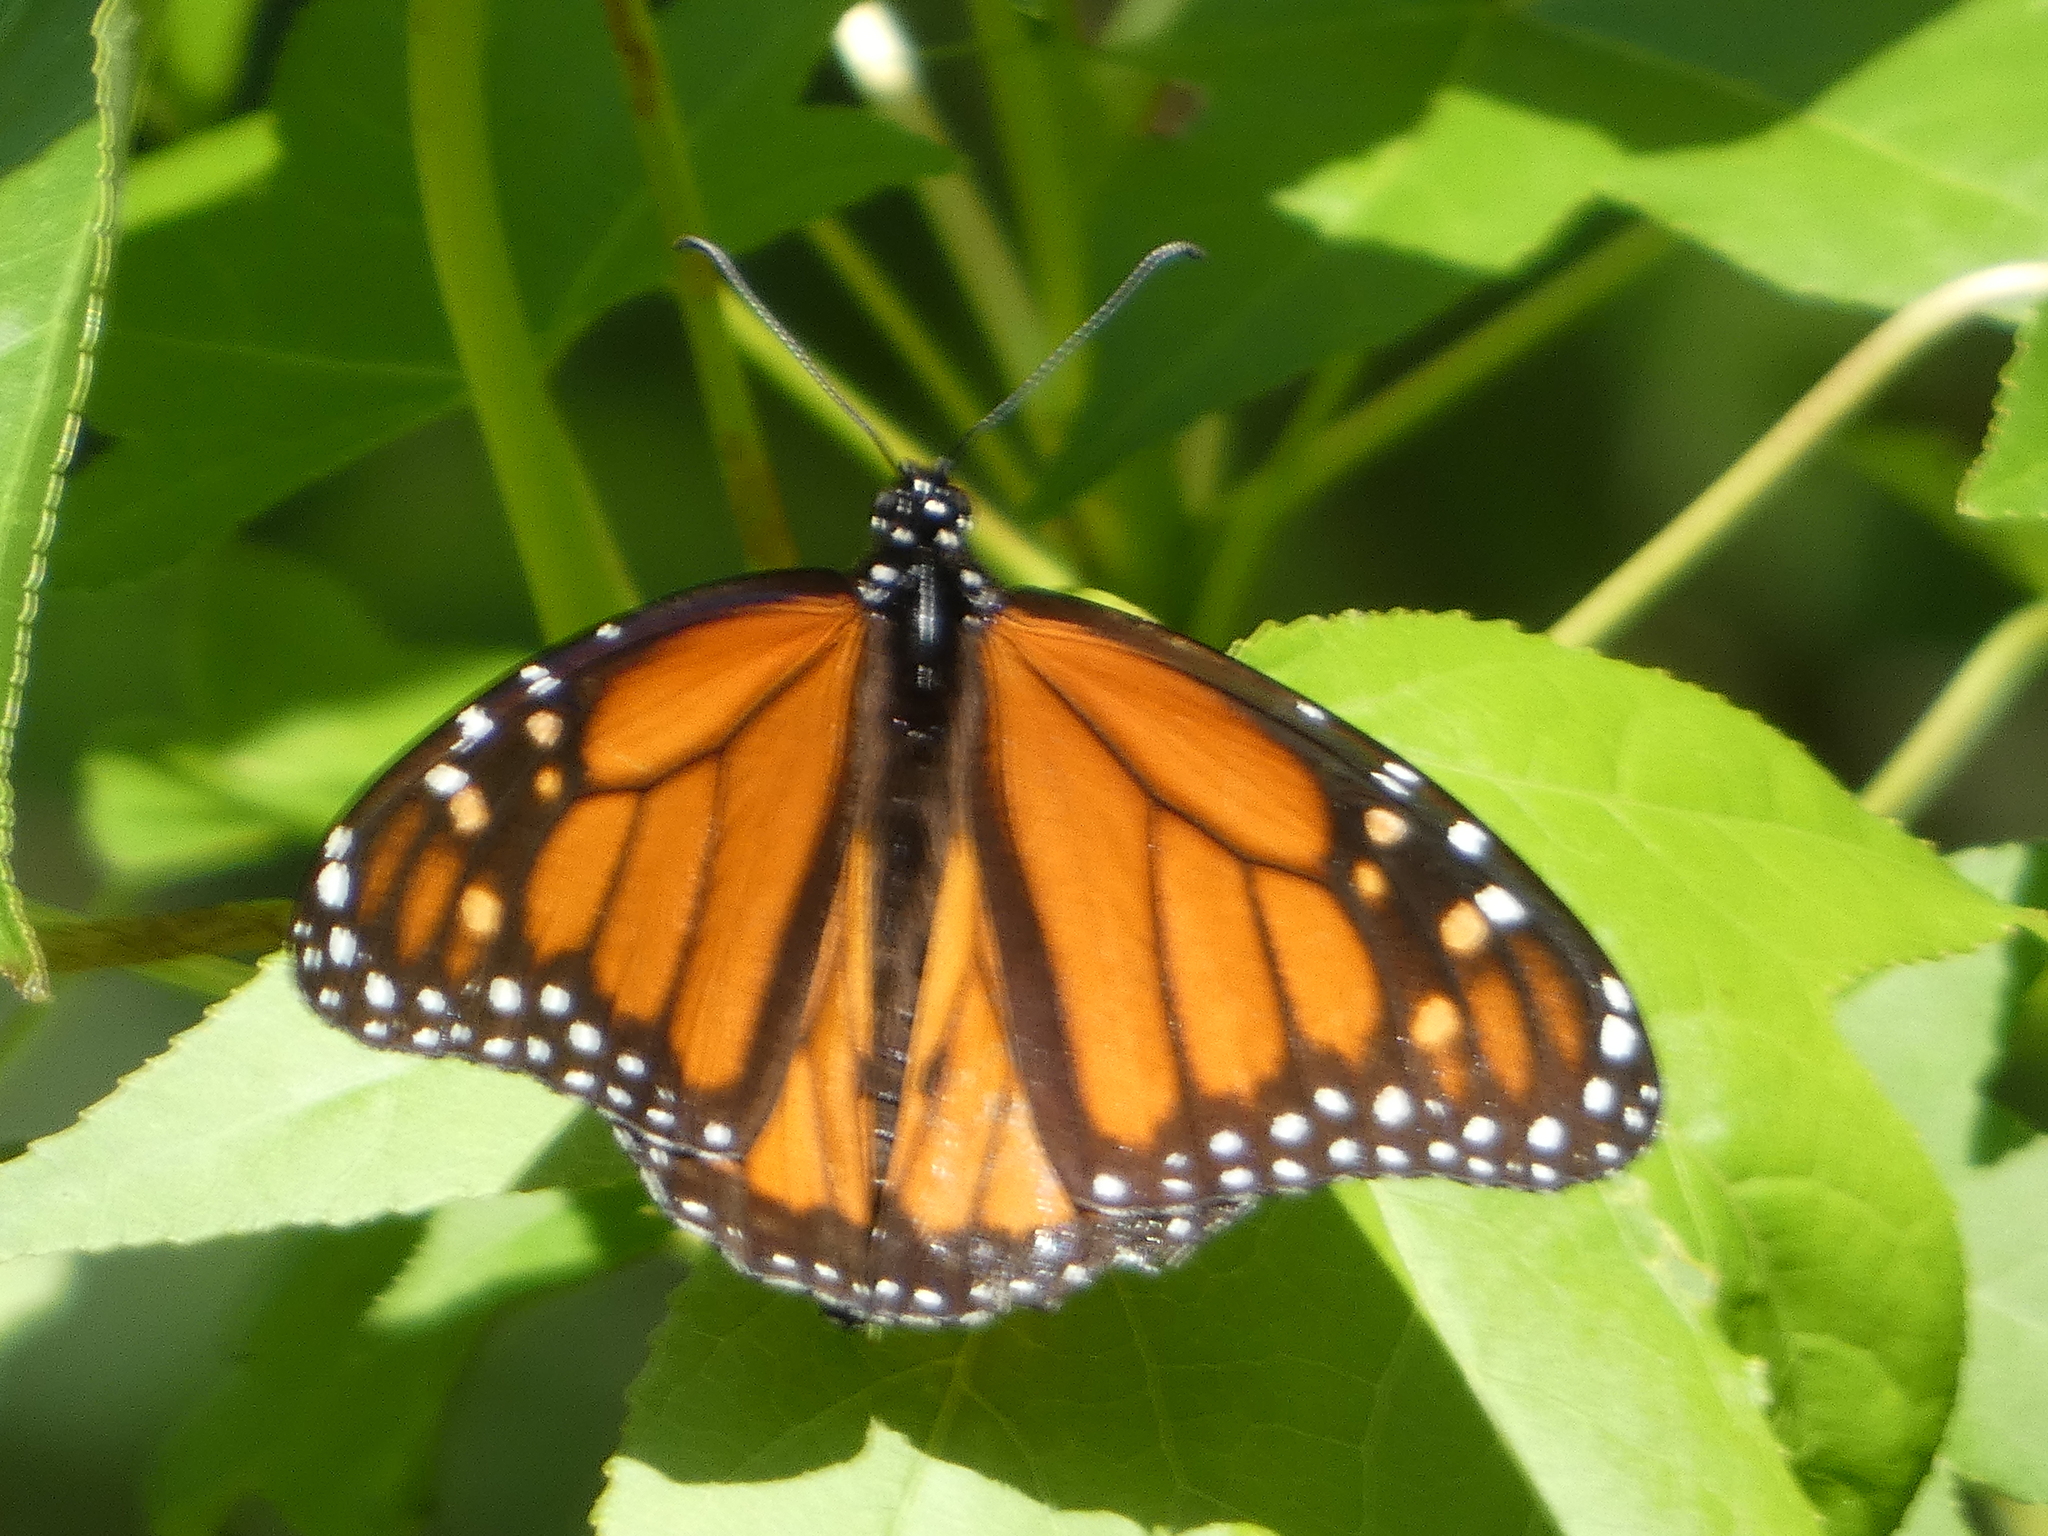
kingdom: Animalia
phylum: Arthropoda
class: Insecta
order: Lepidoptera
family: Nymphalidae
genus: Danaus
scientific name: Danaus plexippus
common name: Monarch
